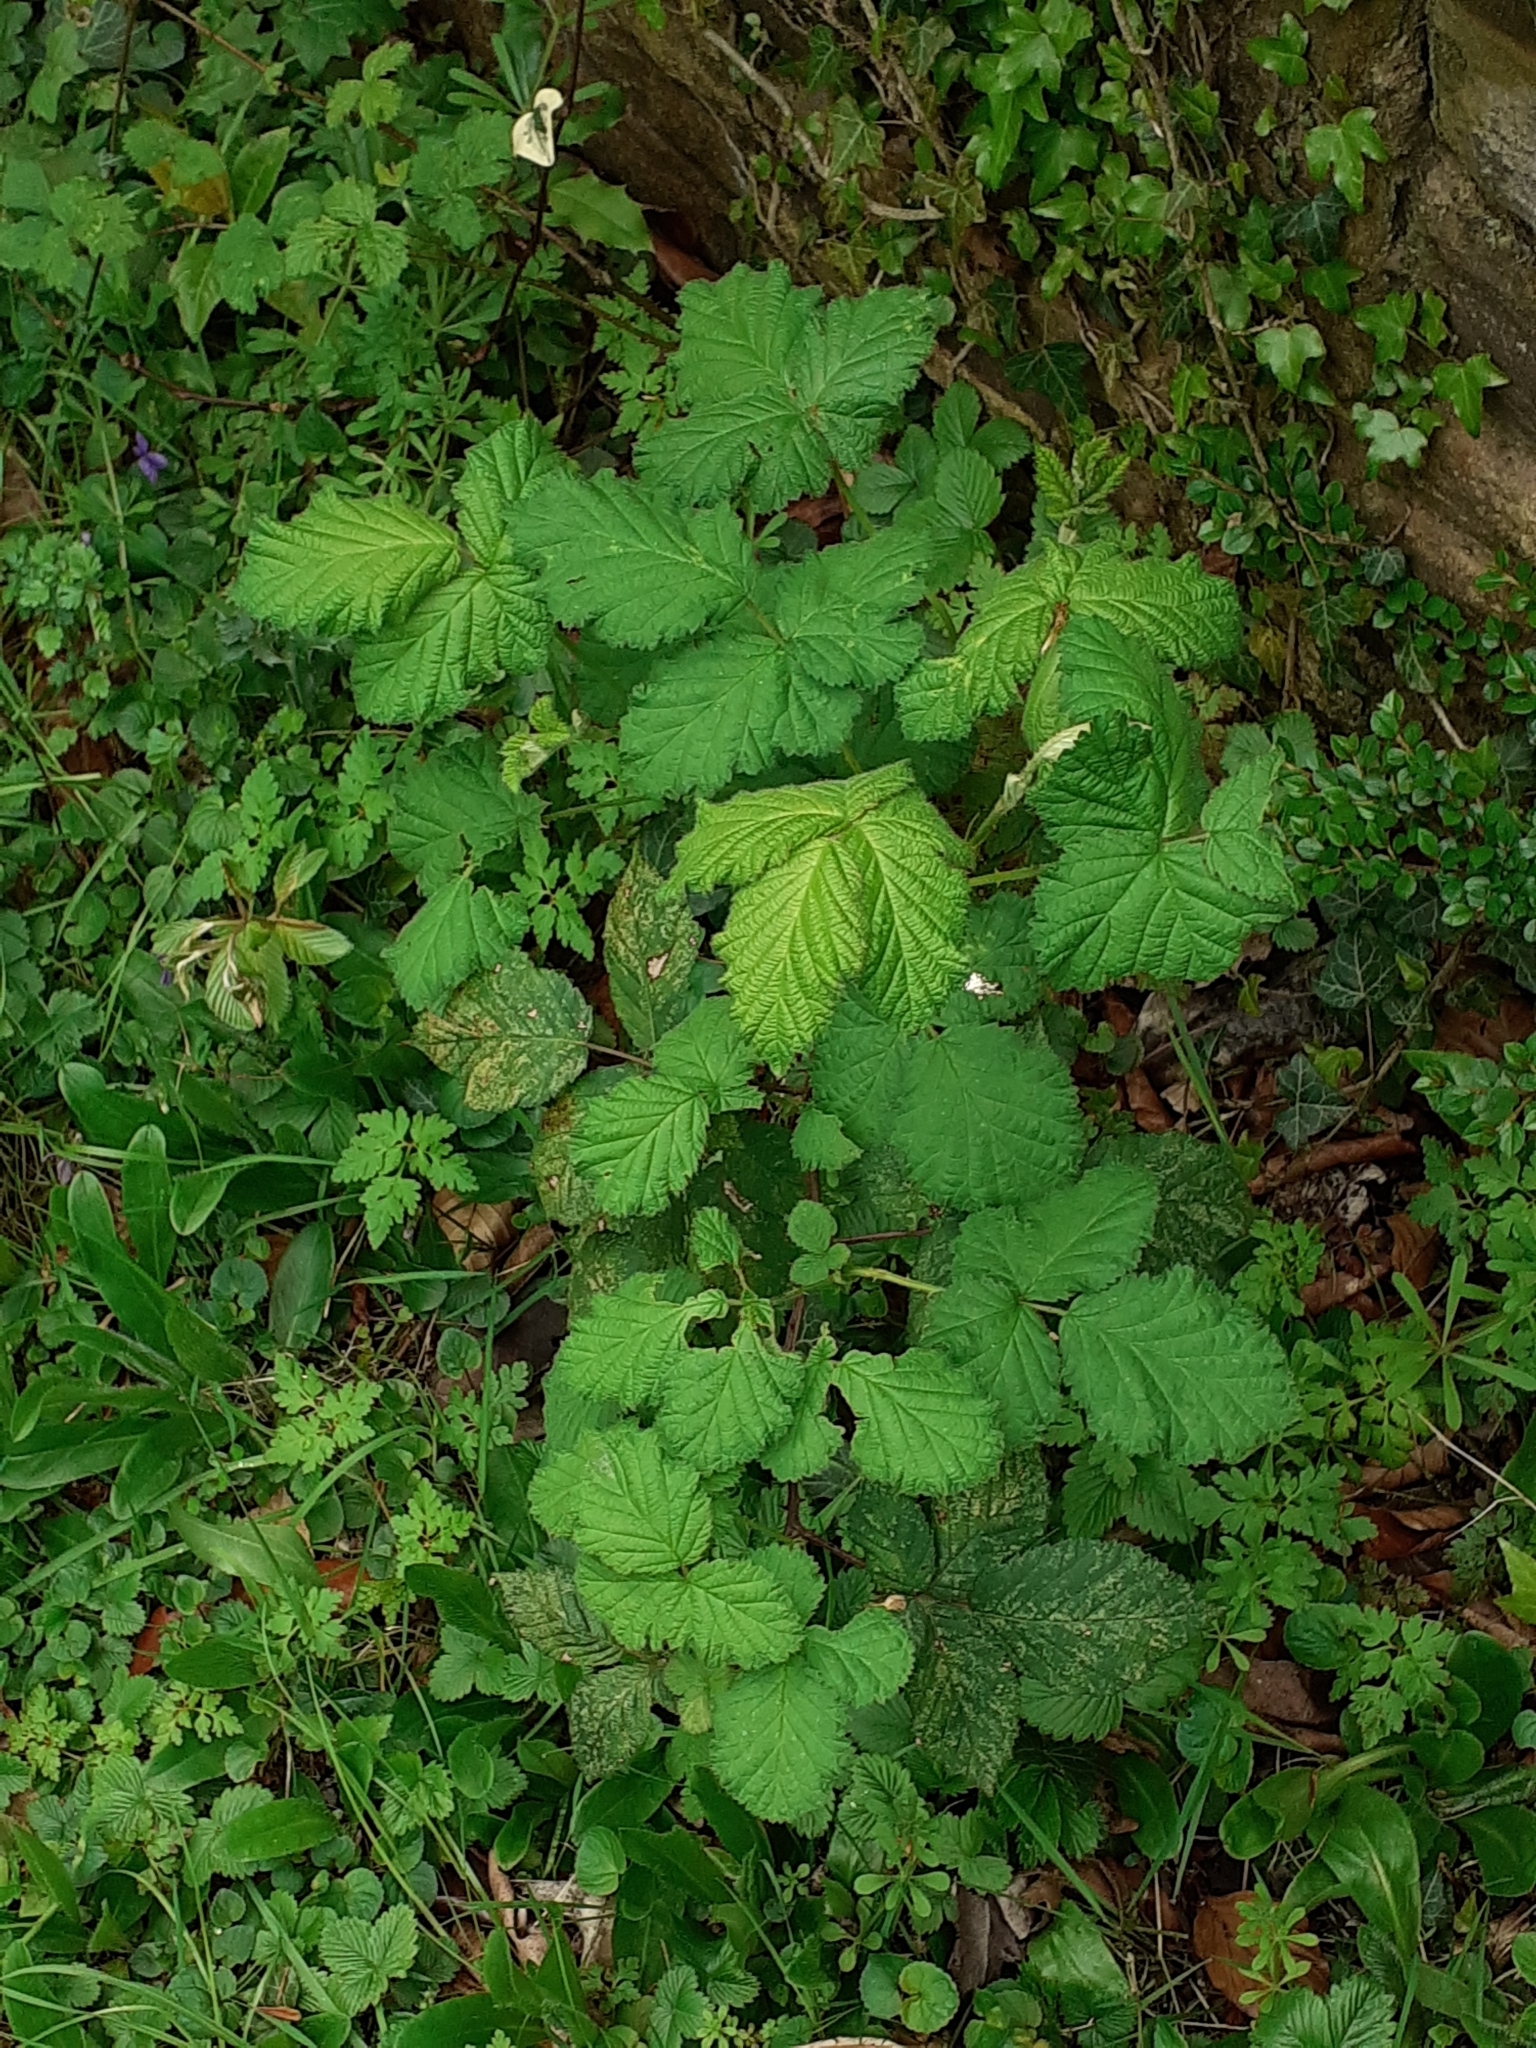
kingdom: Plantae
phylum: Tracheophyta
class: Magnoliopsida
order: Rosales
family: Rosaceae
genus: Rubus
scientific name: Rubus
